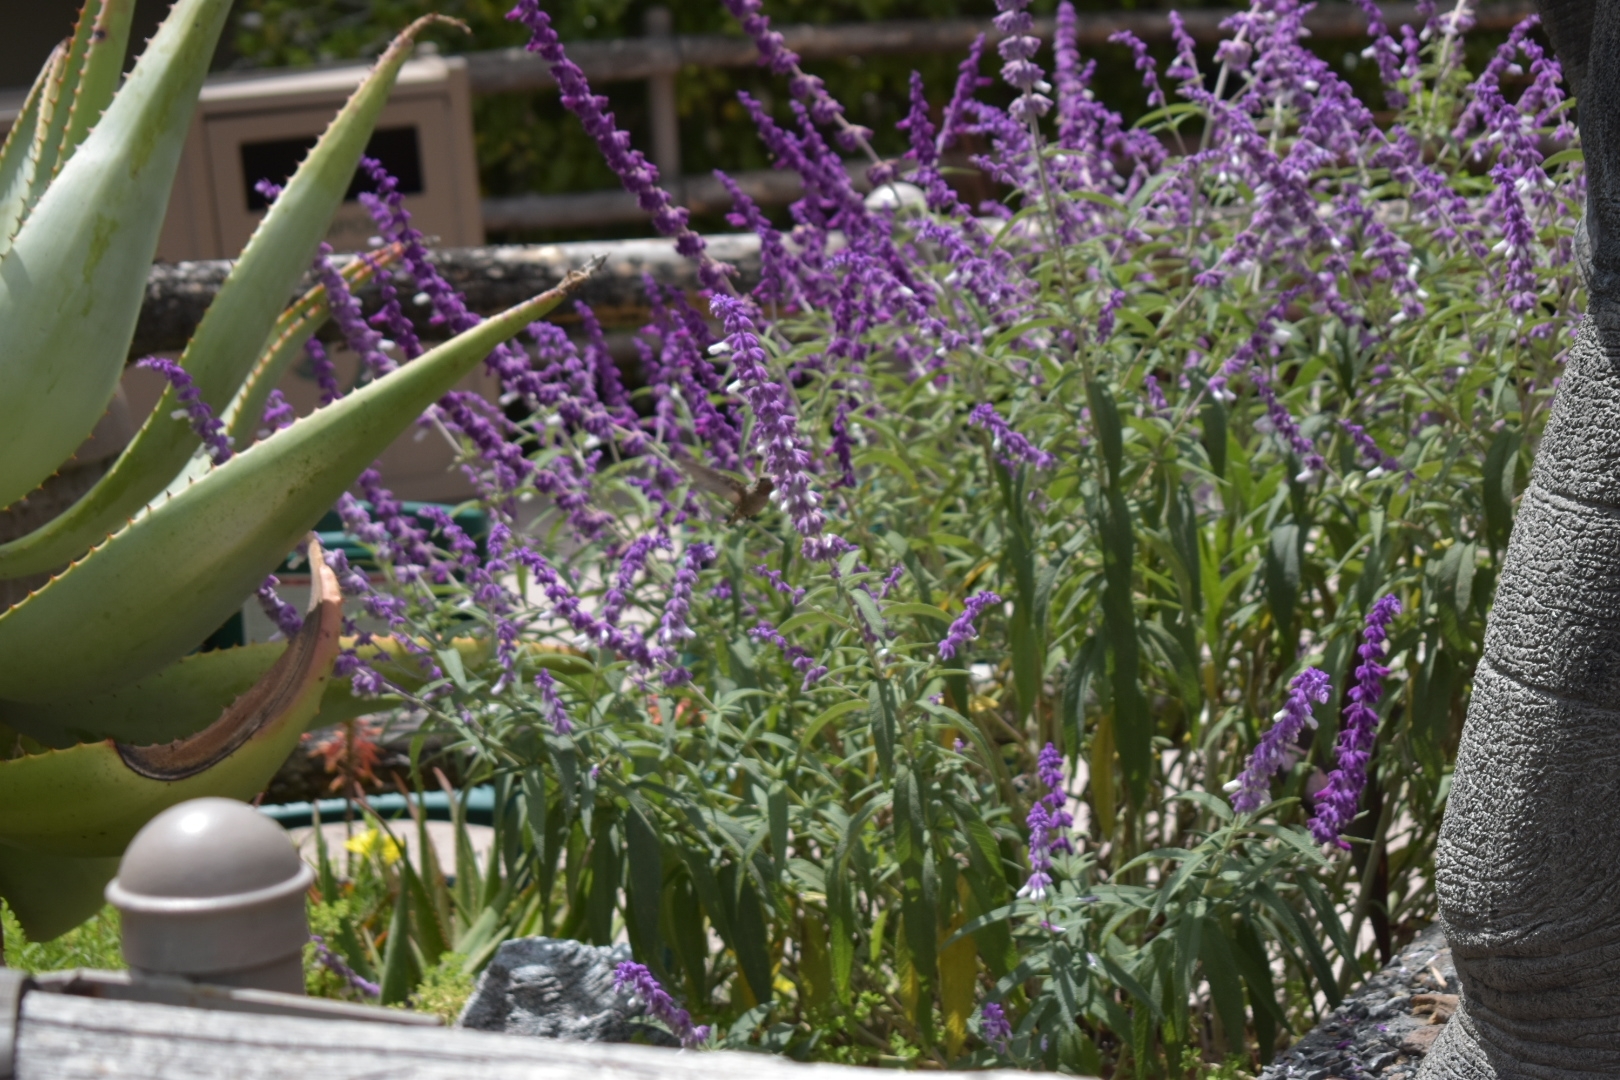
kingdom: Animalia
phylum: Chordata
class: Aves
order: Apodiformes
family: Trochilidae
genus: Calypte
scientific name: Calypte anna
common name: Anna's hummingbird
